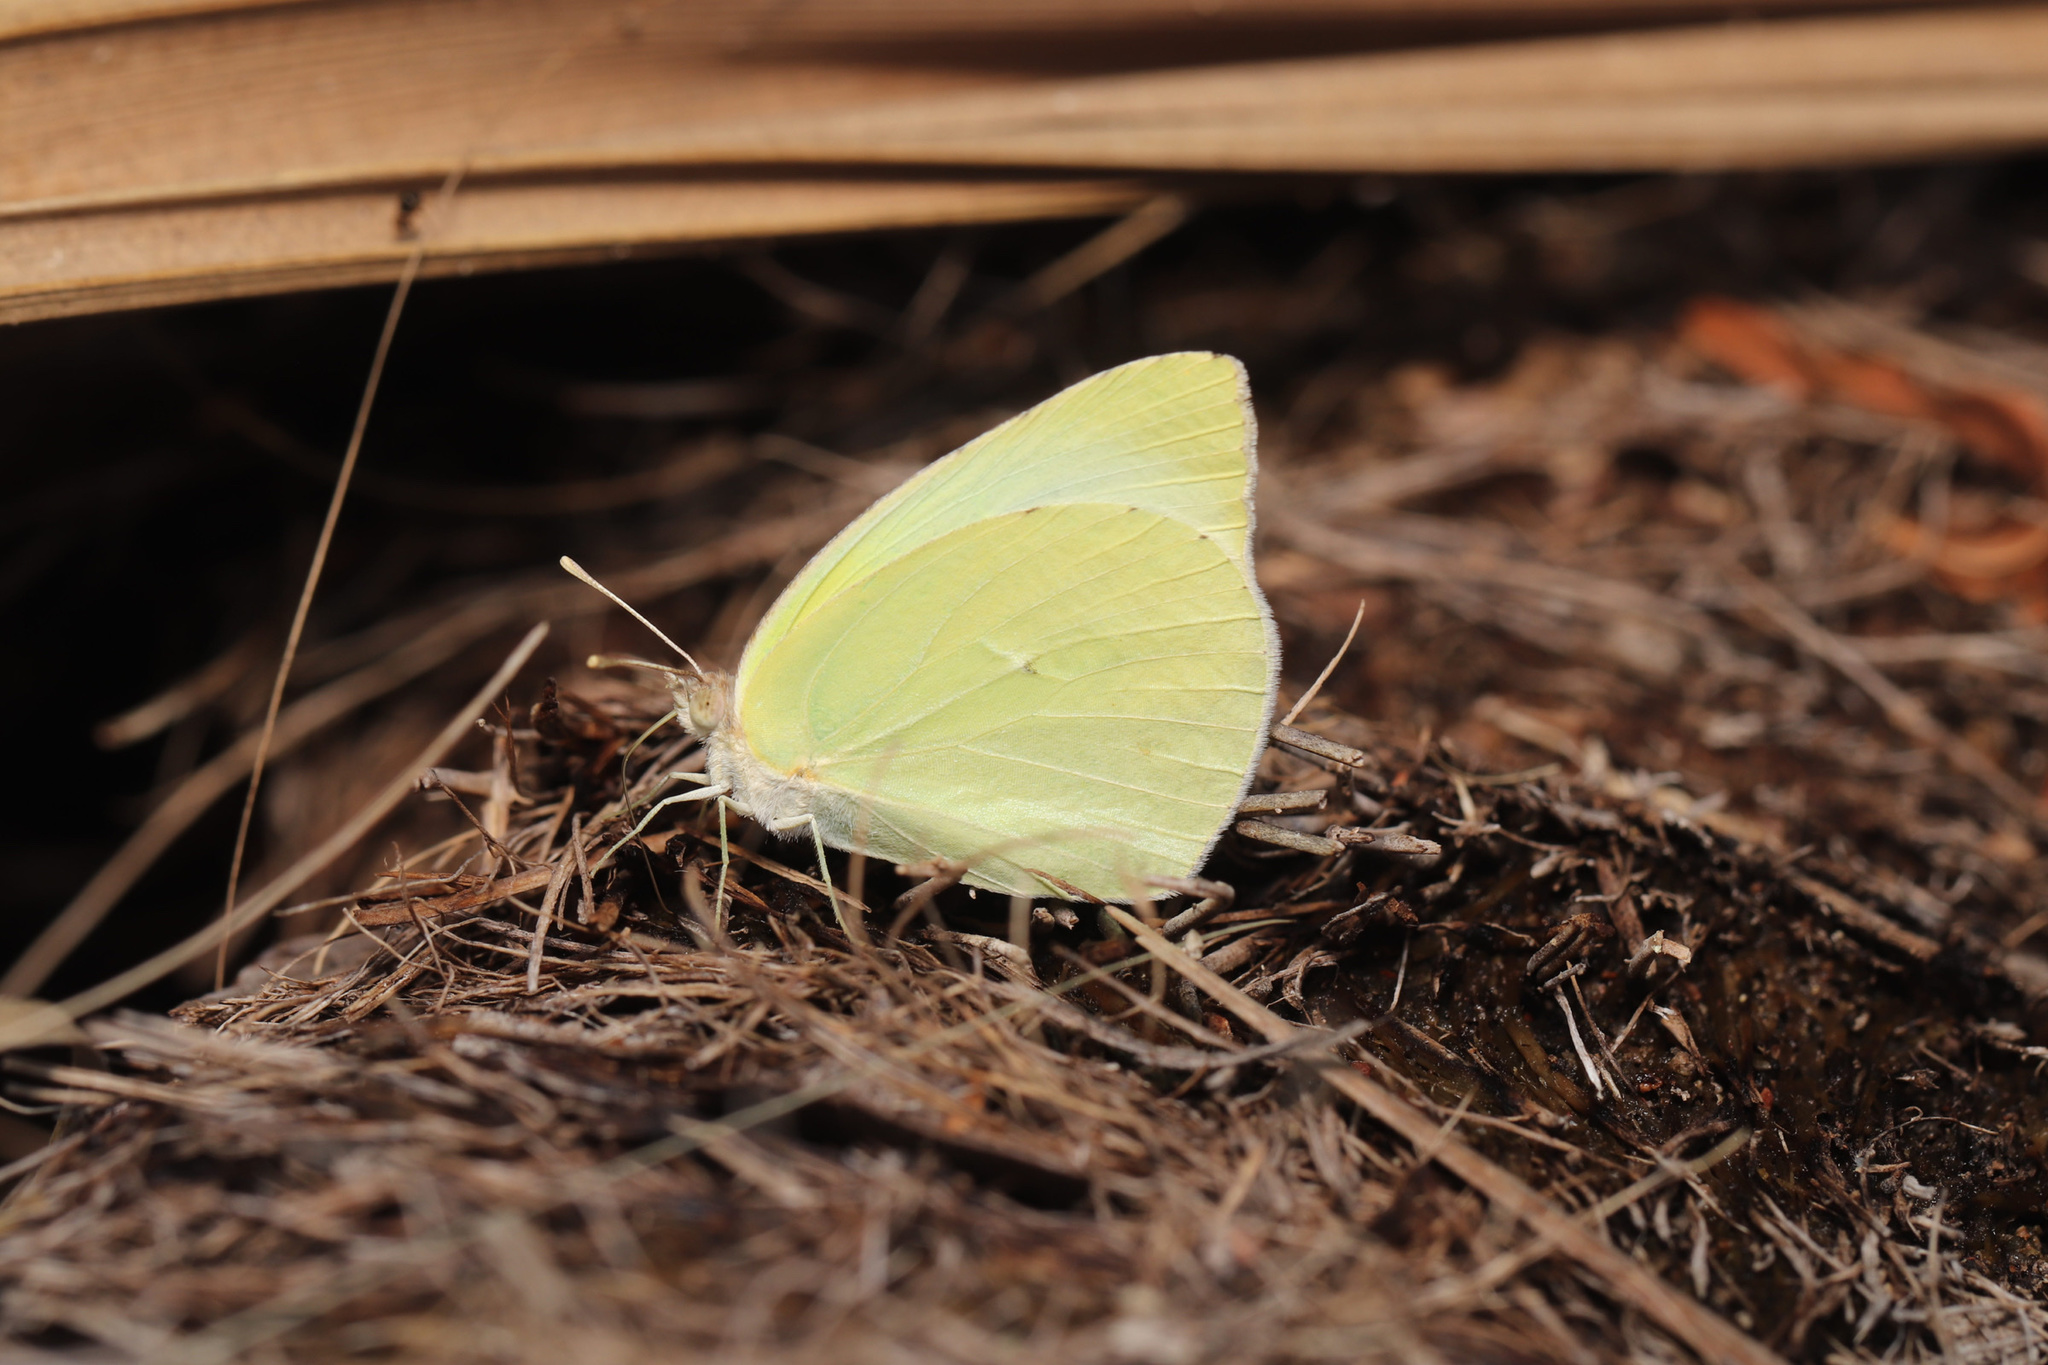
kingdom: Animalia
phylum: Arthropoda
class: Insecta
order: Lepidoptera
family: Pieridae
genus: Kricogonia
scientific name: Kricogonia lyside
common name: Guayacan sulphur,
